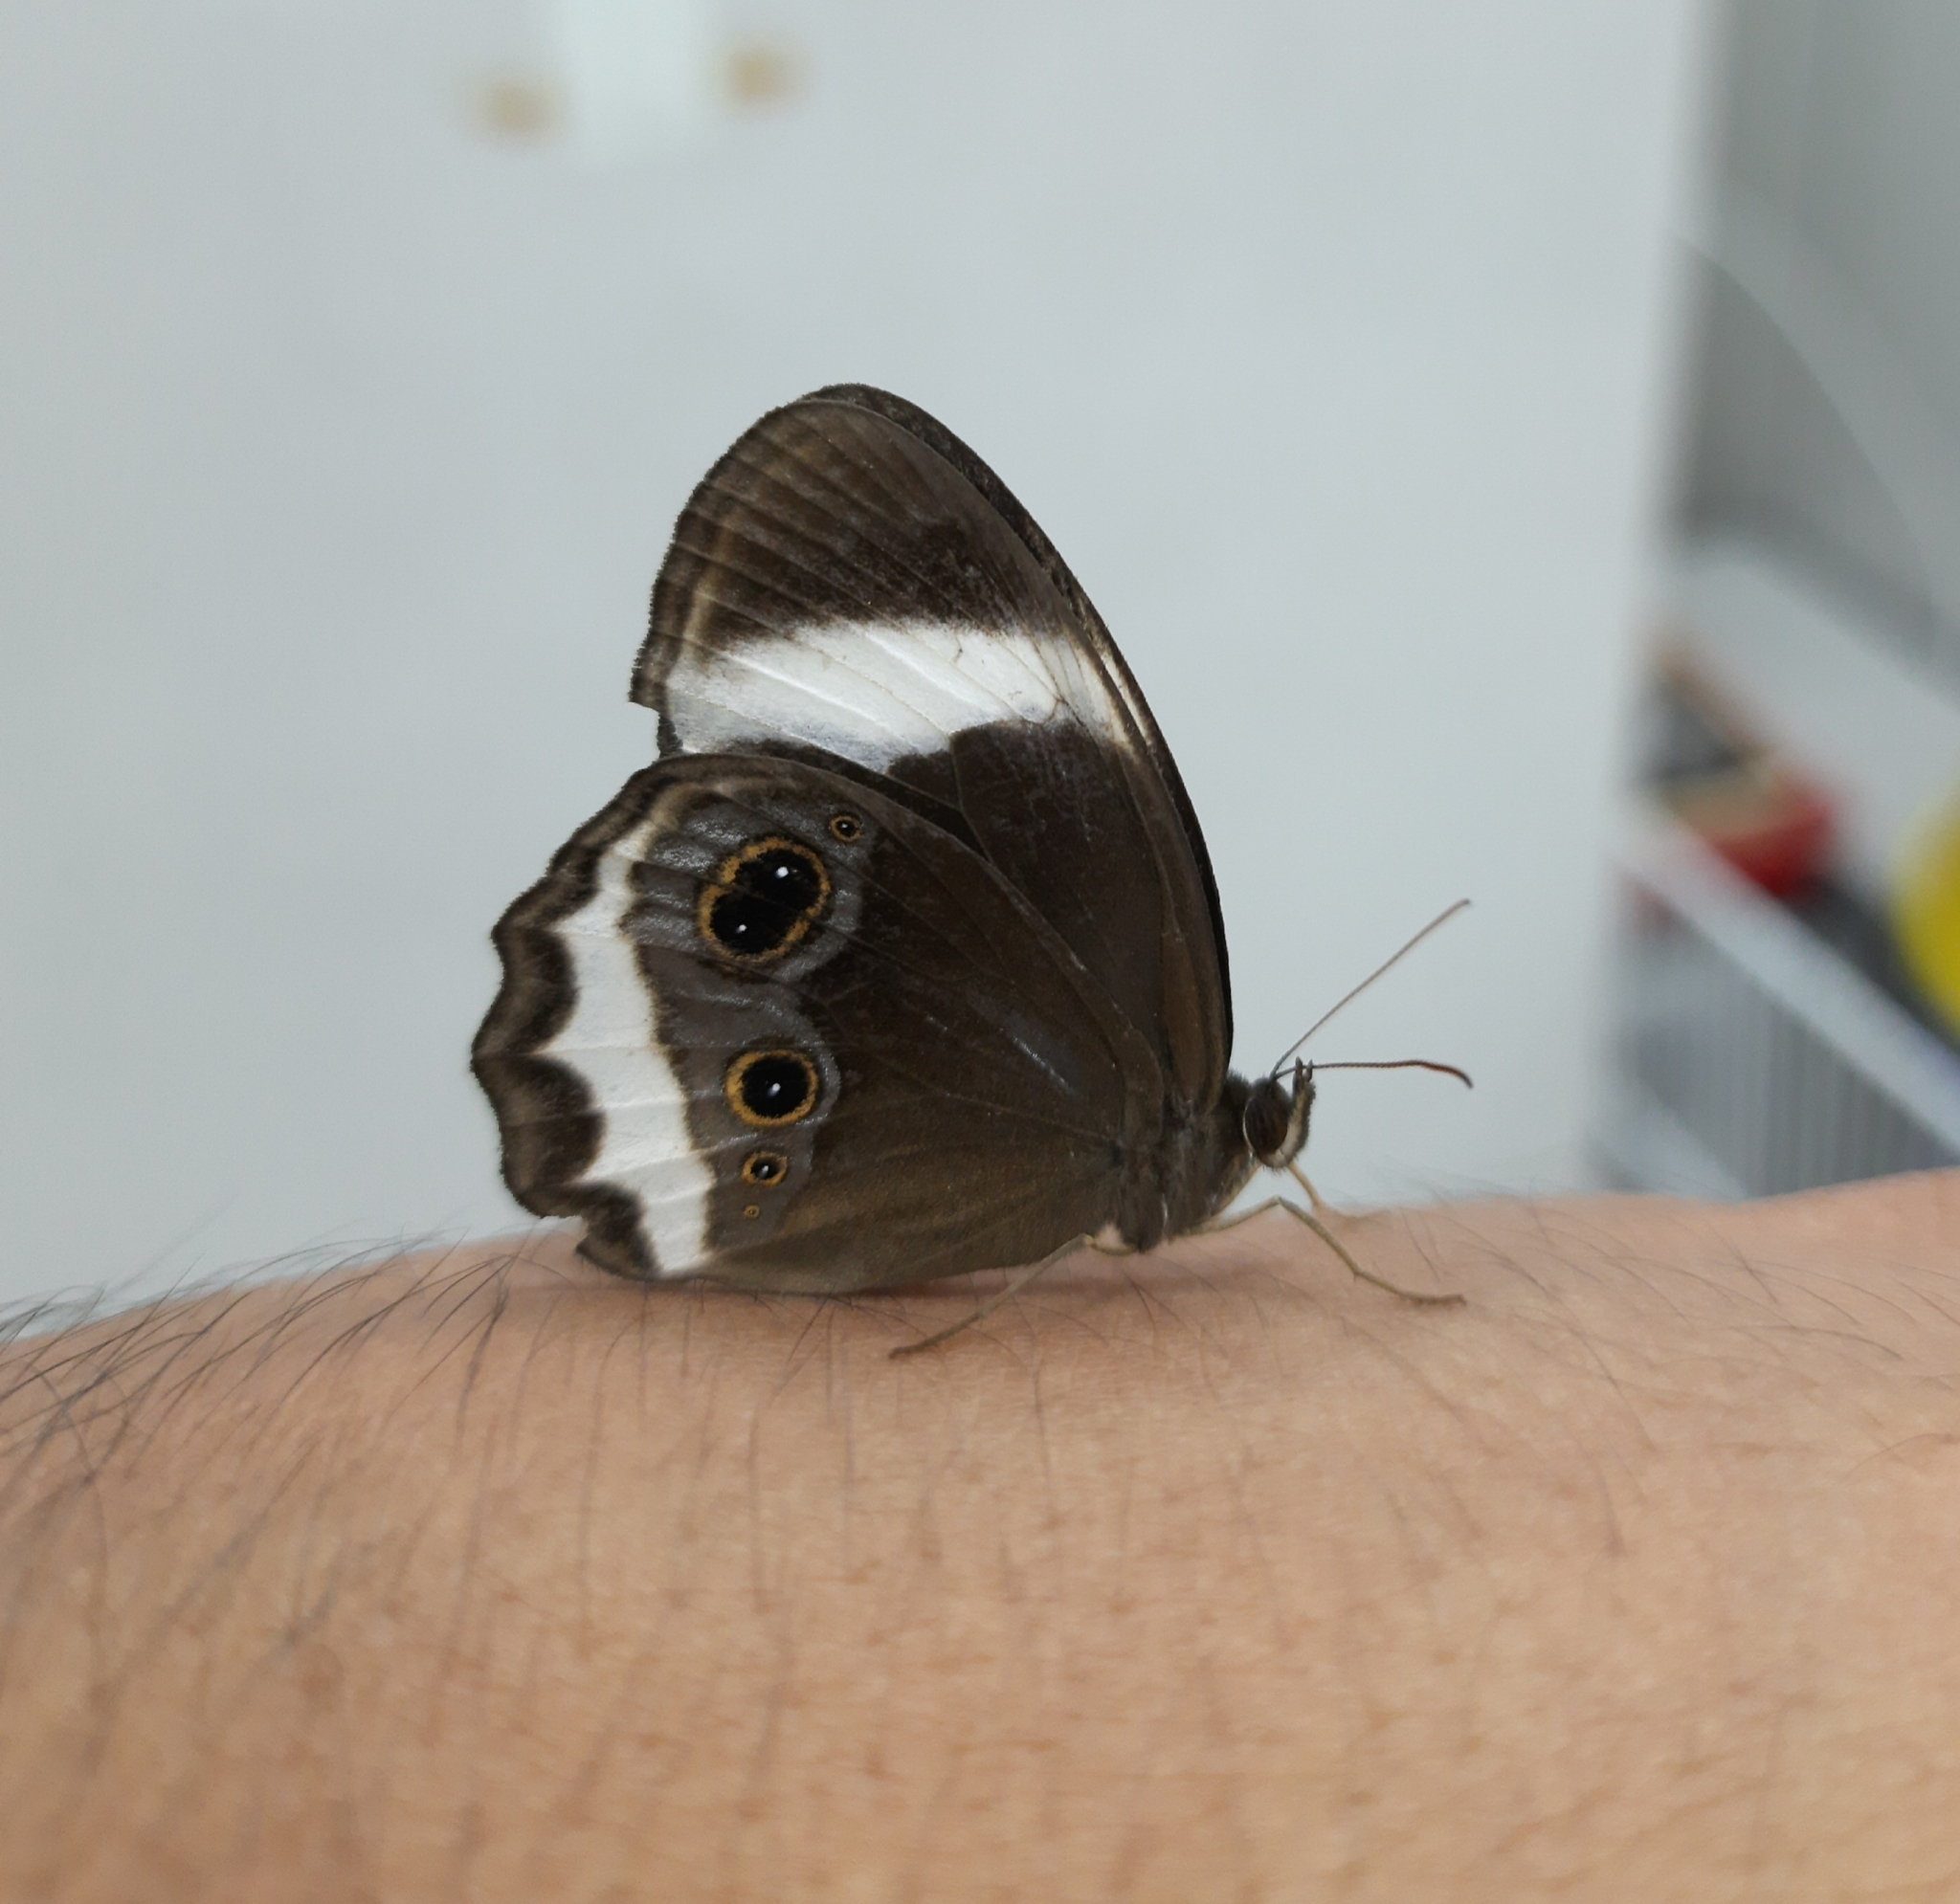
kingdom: Animalia
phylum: Arthropoda
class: Insecta
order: Lepidoptera
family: Nymphalidae
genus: Zipaetis
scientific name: Zipaetis saitis
